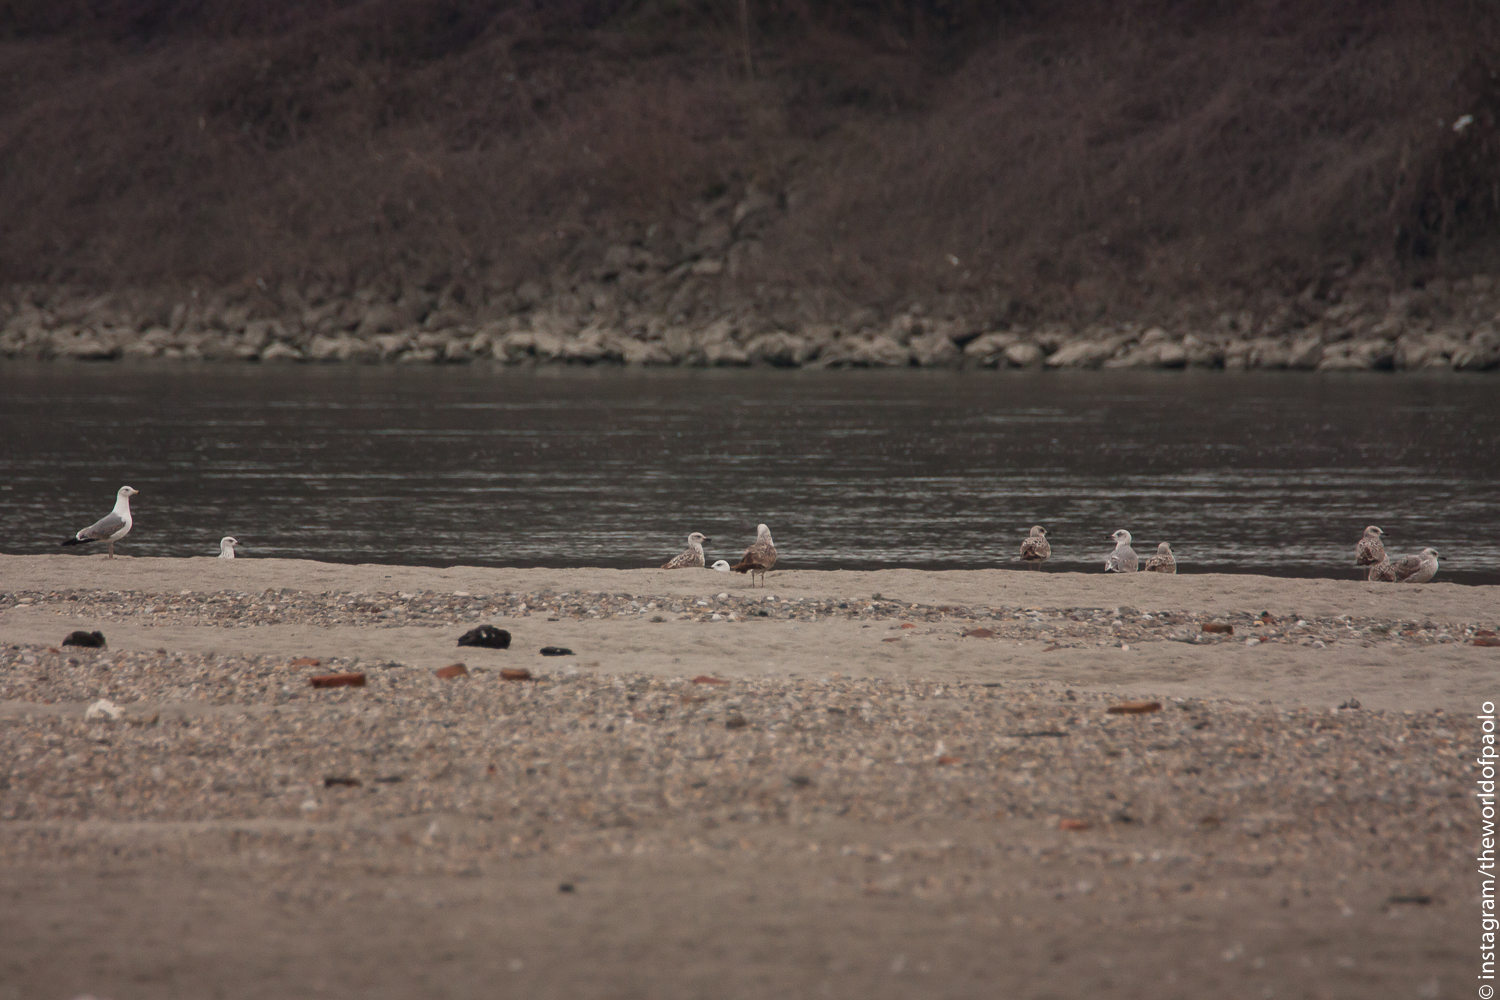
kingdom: Animalia
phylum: Chordata
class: Aves
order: Charadriiformes
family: Laridae
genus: Larus
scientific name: Larus michahellis
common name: Yellow-legged gull
